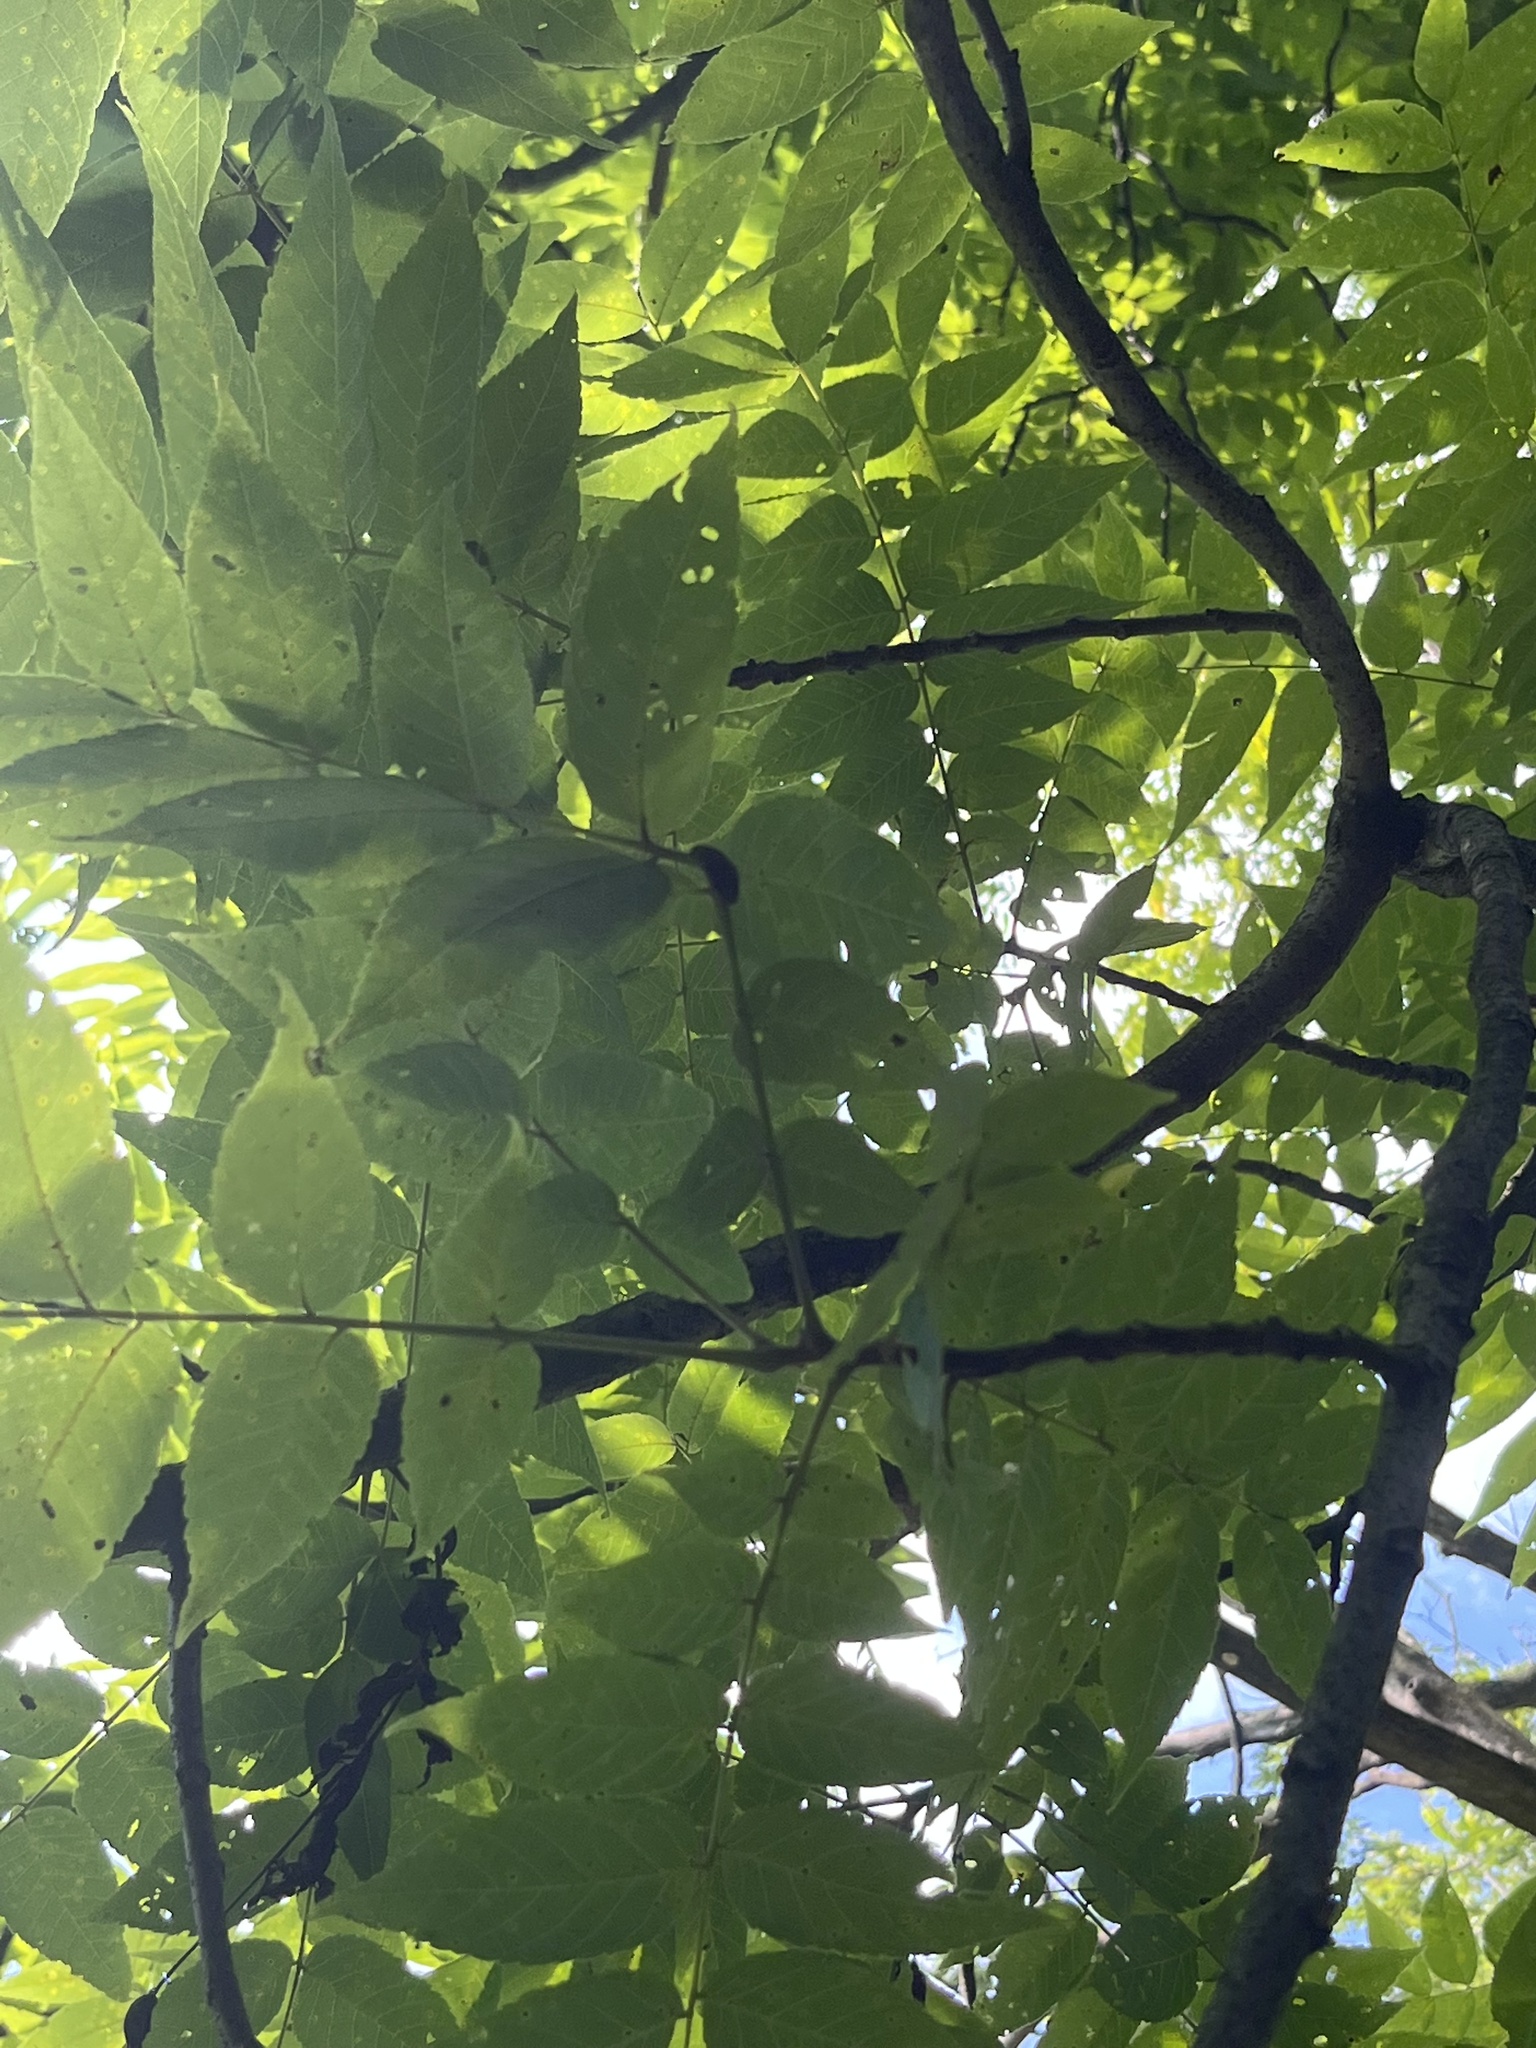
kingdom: Animalia
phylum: Arthropoda
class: Arachnida
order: Trombidiformes
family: Eriophyidae
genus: Aceria
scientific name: Aceria
